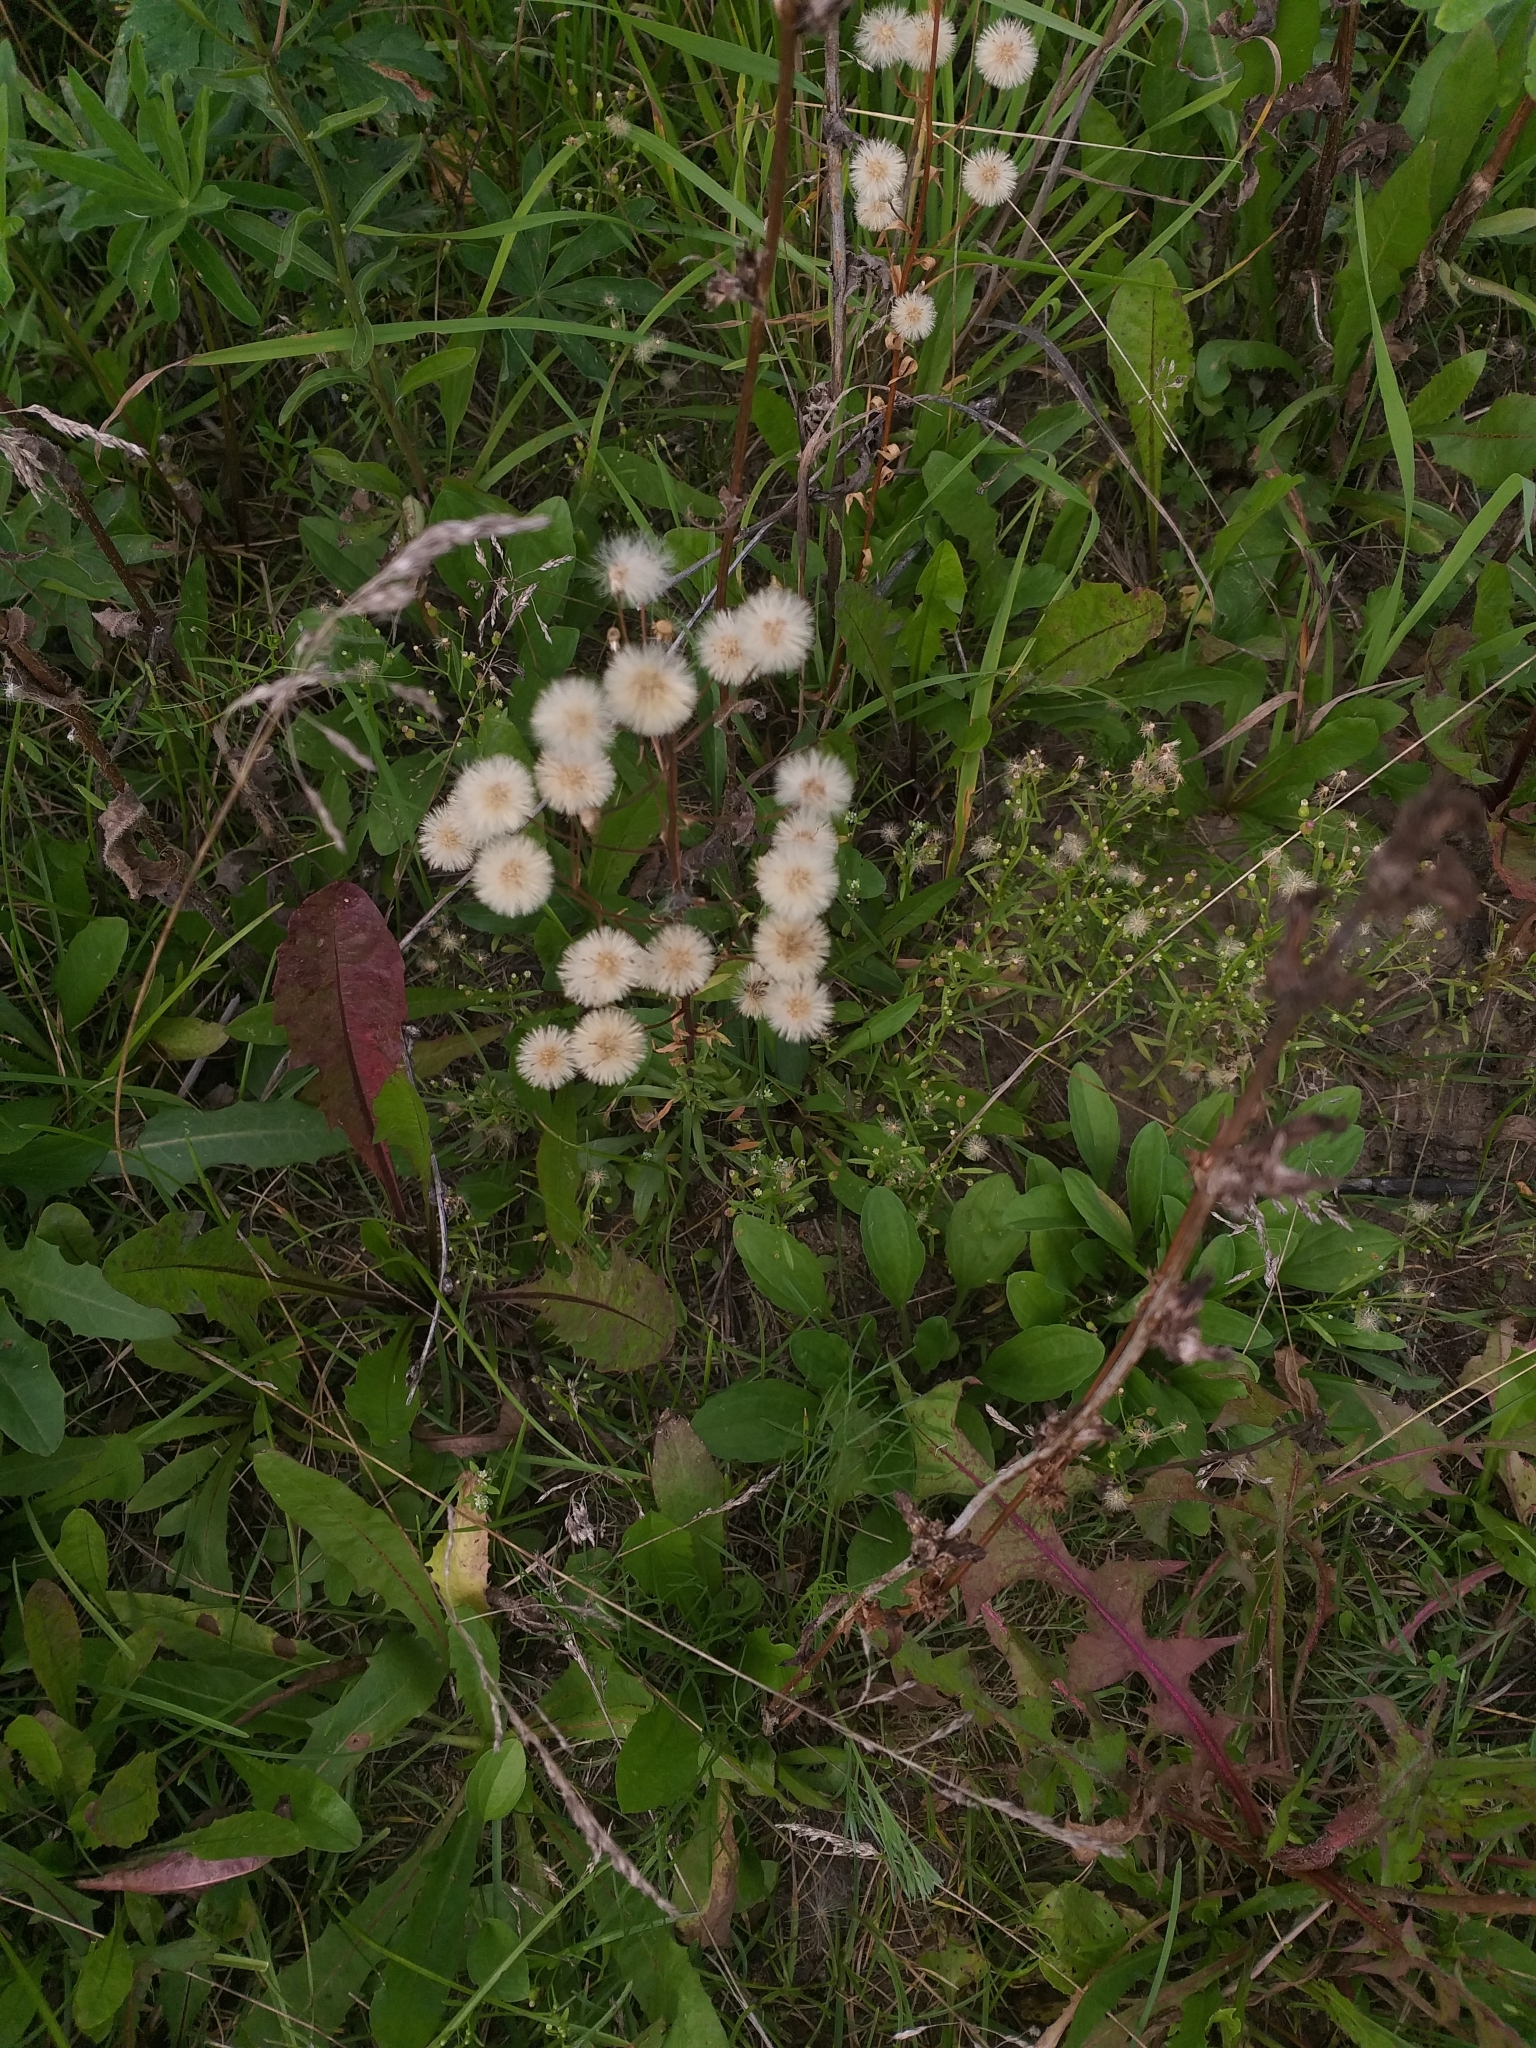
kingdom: Plantae
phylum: Tracheophyta
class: Magnoliopsida
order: Asterales
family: Asteraceae
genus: Erigeron
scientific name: Erigeron acris
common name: Blue fleabane
